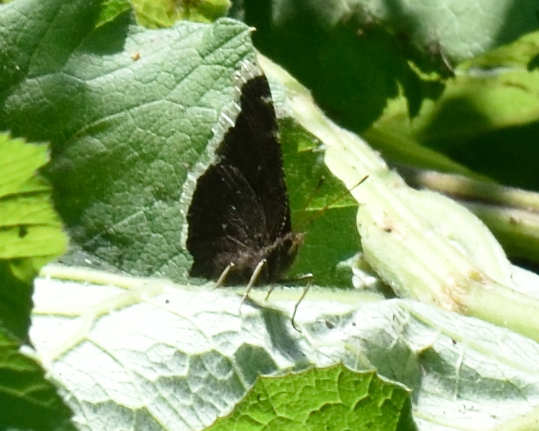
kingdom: Animalia
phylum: Arthropoda
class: Insecta
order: Lepidoptera
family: Nymphalidae
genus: Nymphalis
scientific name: Nymphalis antiopa
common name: Camberwell beauty
